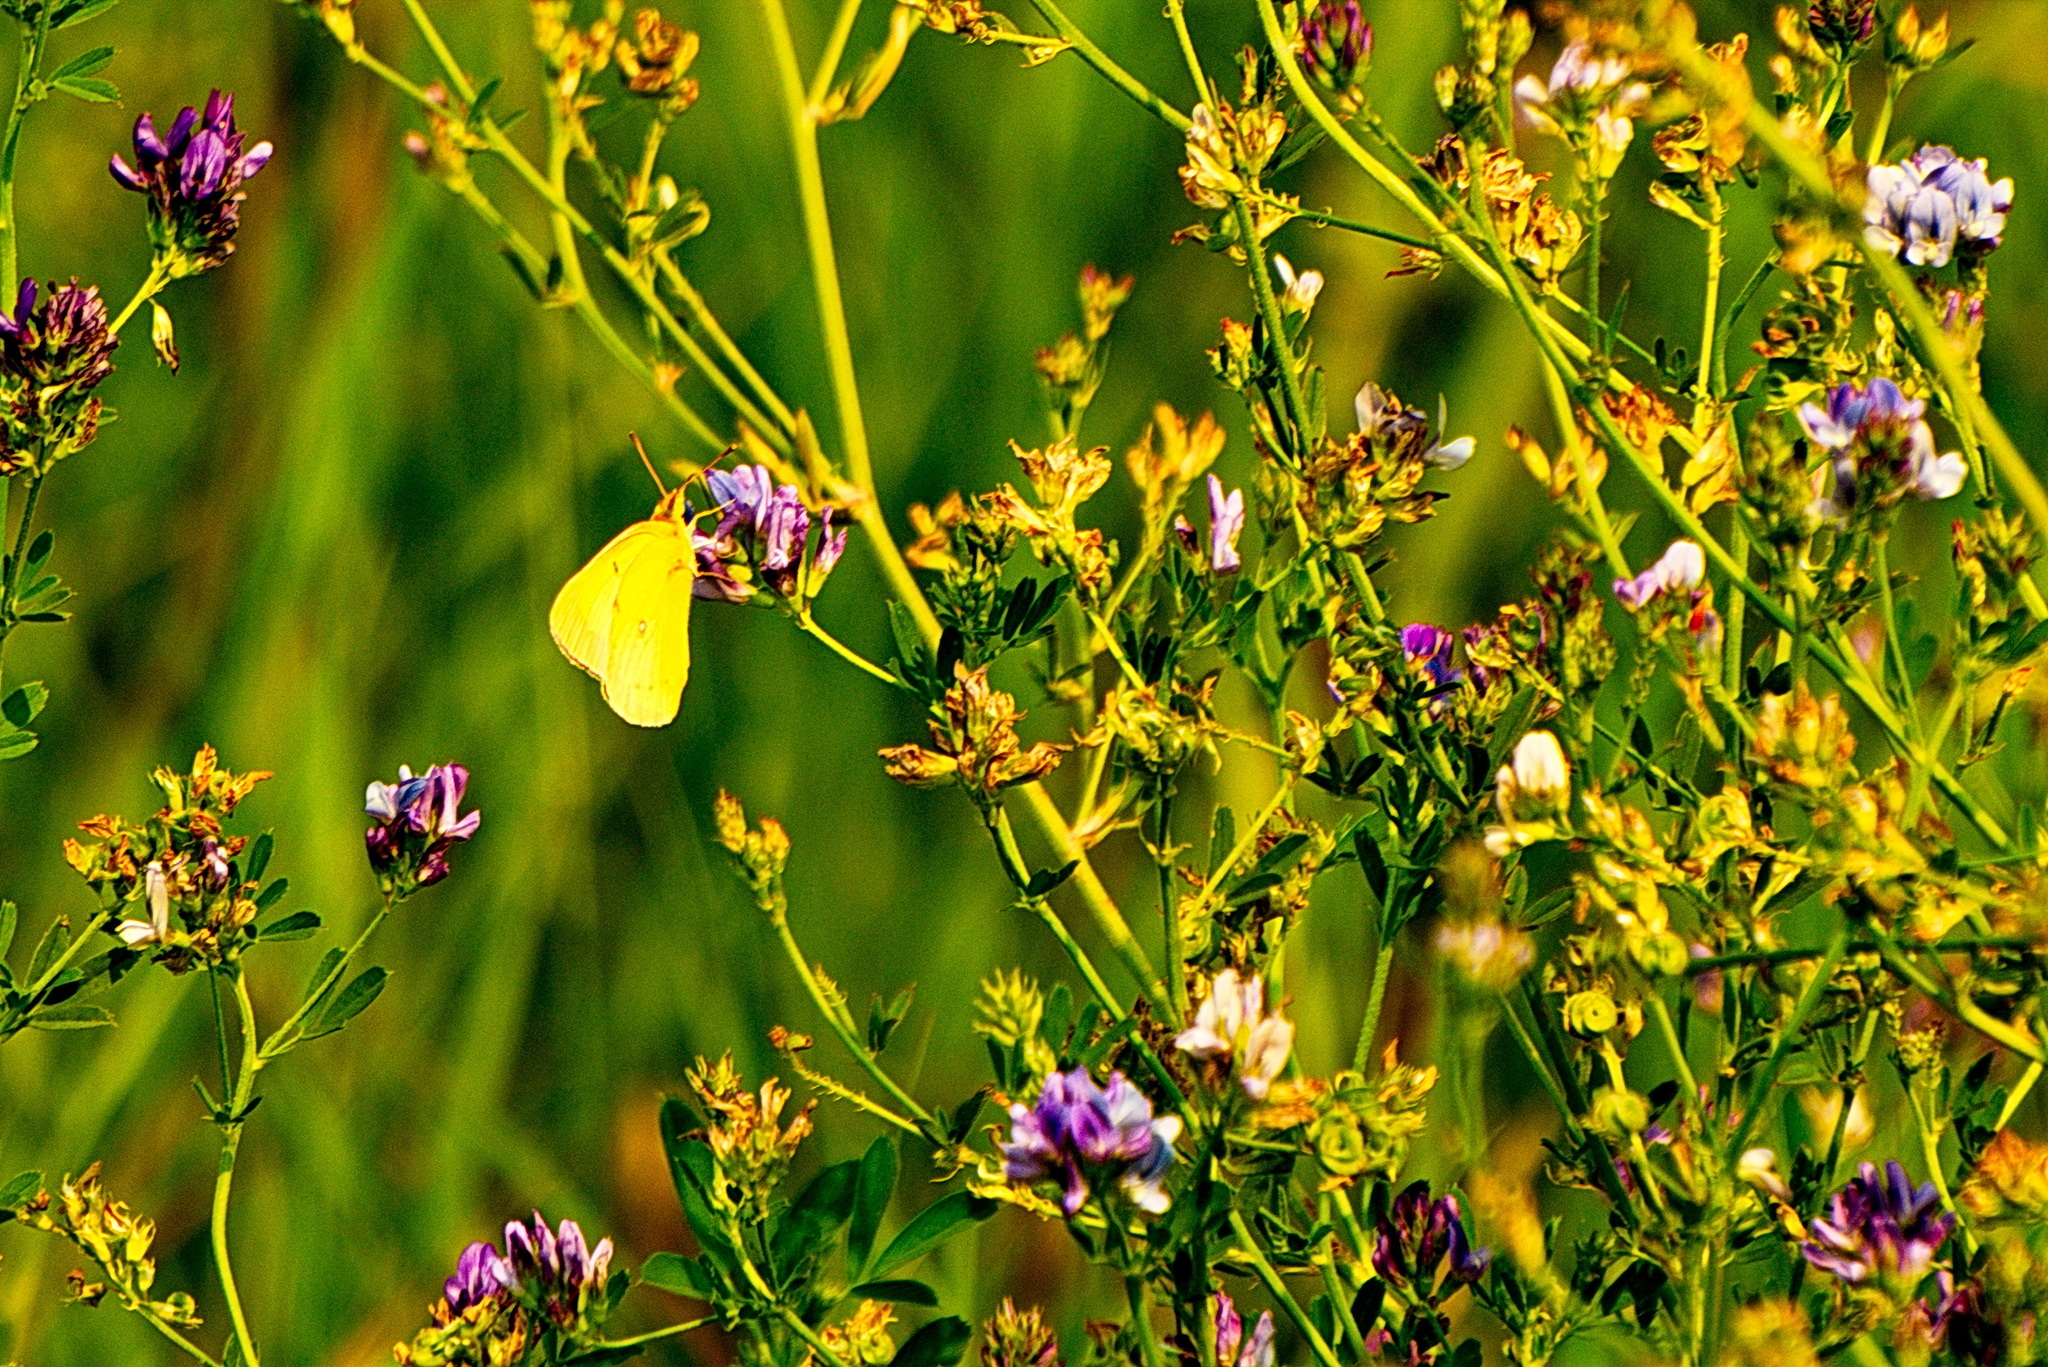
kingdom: Animalia
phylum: Arthropoda
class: Insecta
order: Lepidoptera
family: Pieridae
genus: Colias
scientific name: Colias philodice
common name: Clouded sulphur
